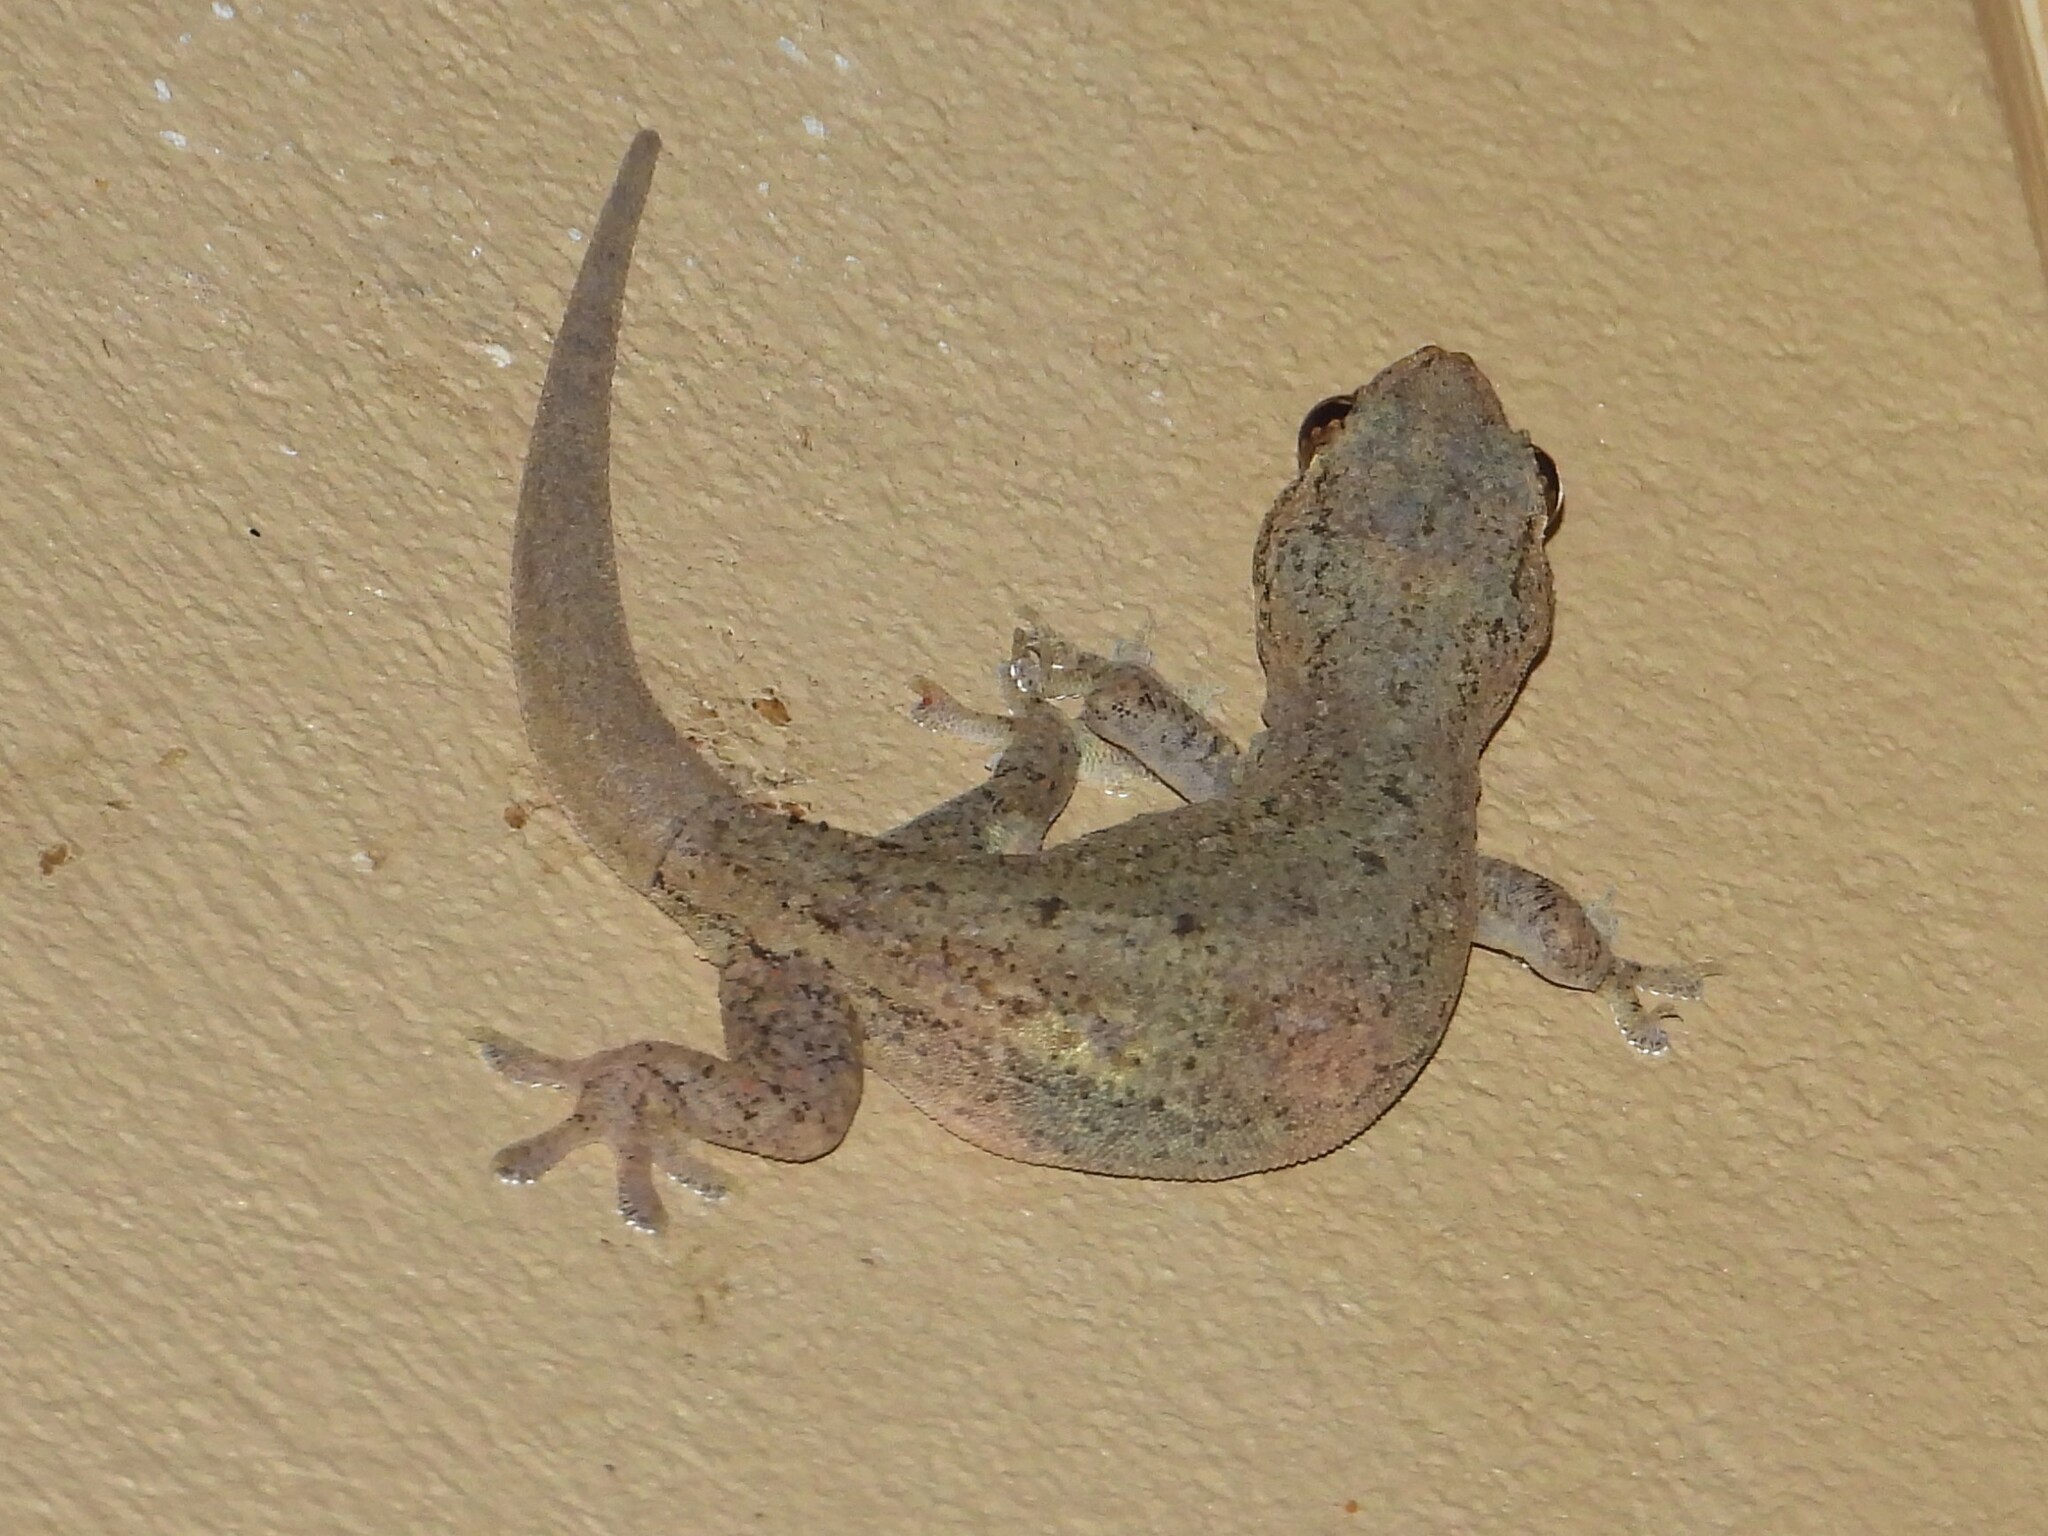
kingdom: Animalia
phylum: Chordata
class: Squamata
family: Gekkonidae
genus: Hemidactylus
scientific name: Hemidactylus frenatus
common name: Common house gecko
